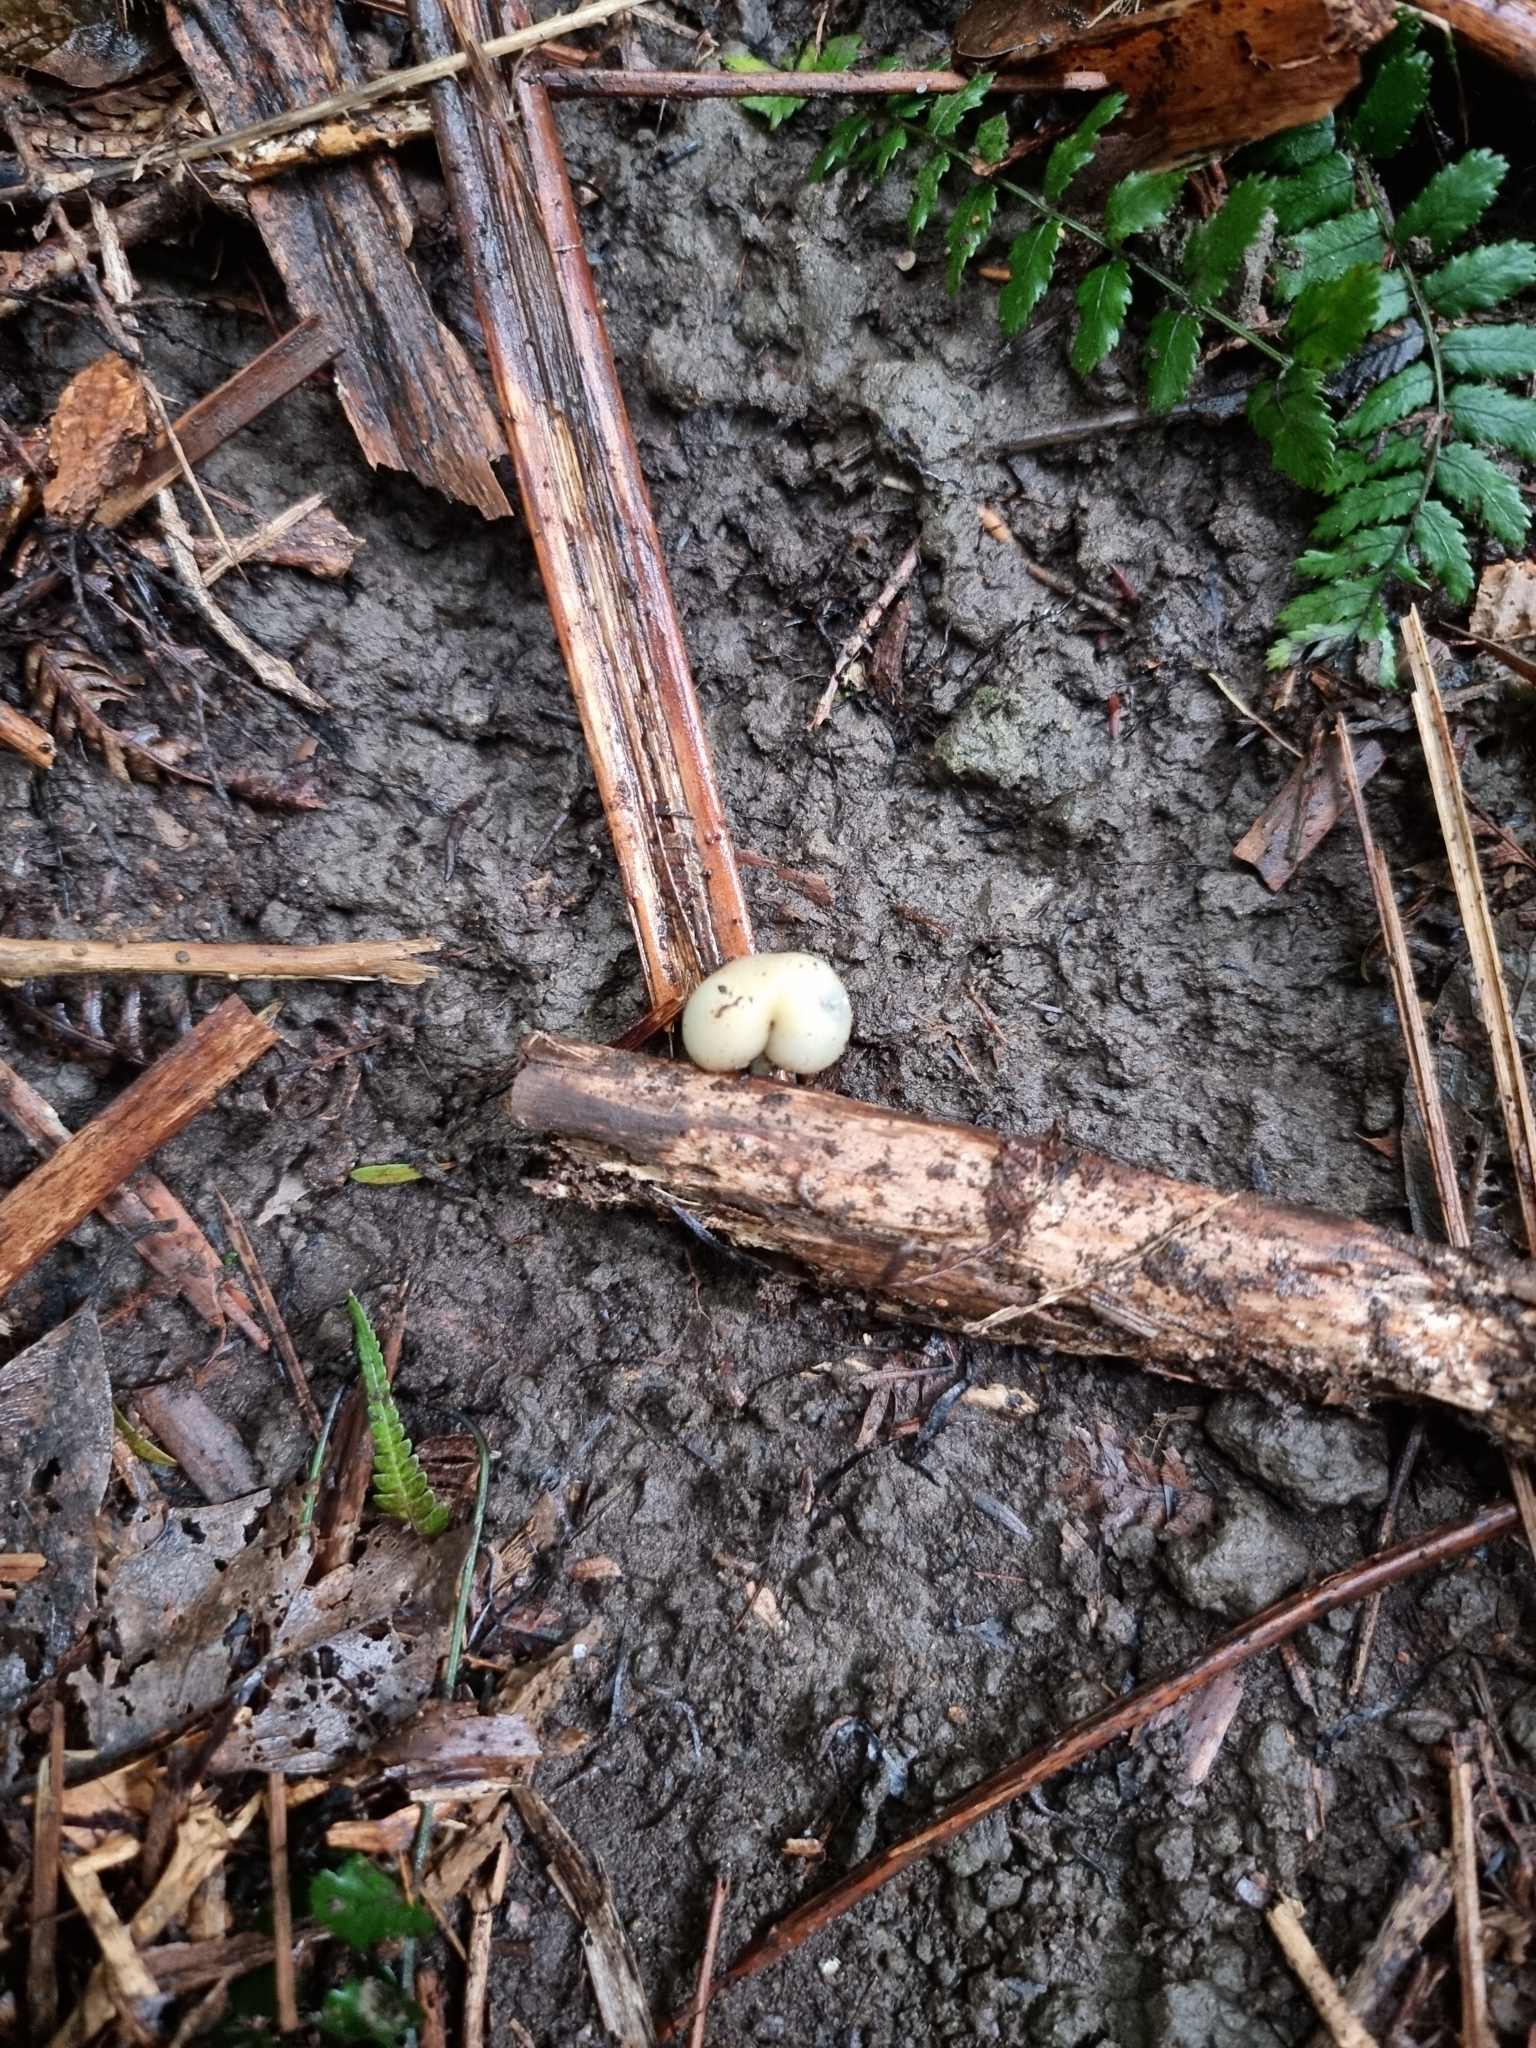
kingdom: Fungi
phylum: Basidiomycota
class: Agaricomycetes
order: Agaricales
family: Hymenogastraceae
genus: Psilocybe
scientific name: Psilocybe weraroa
